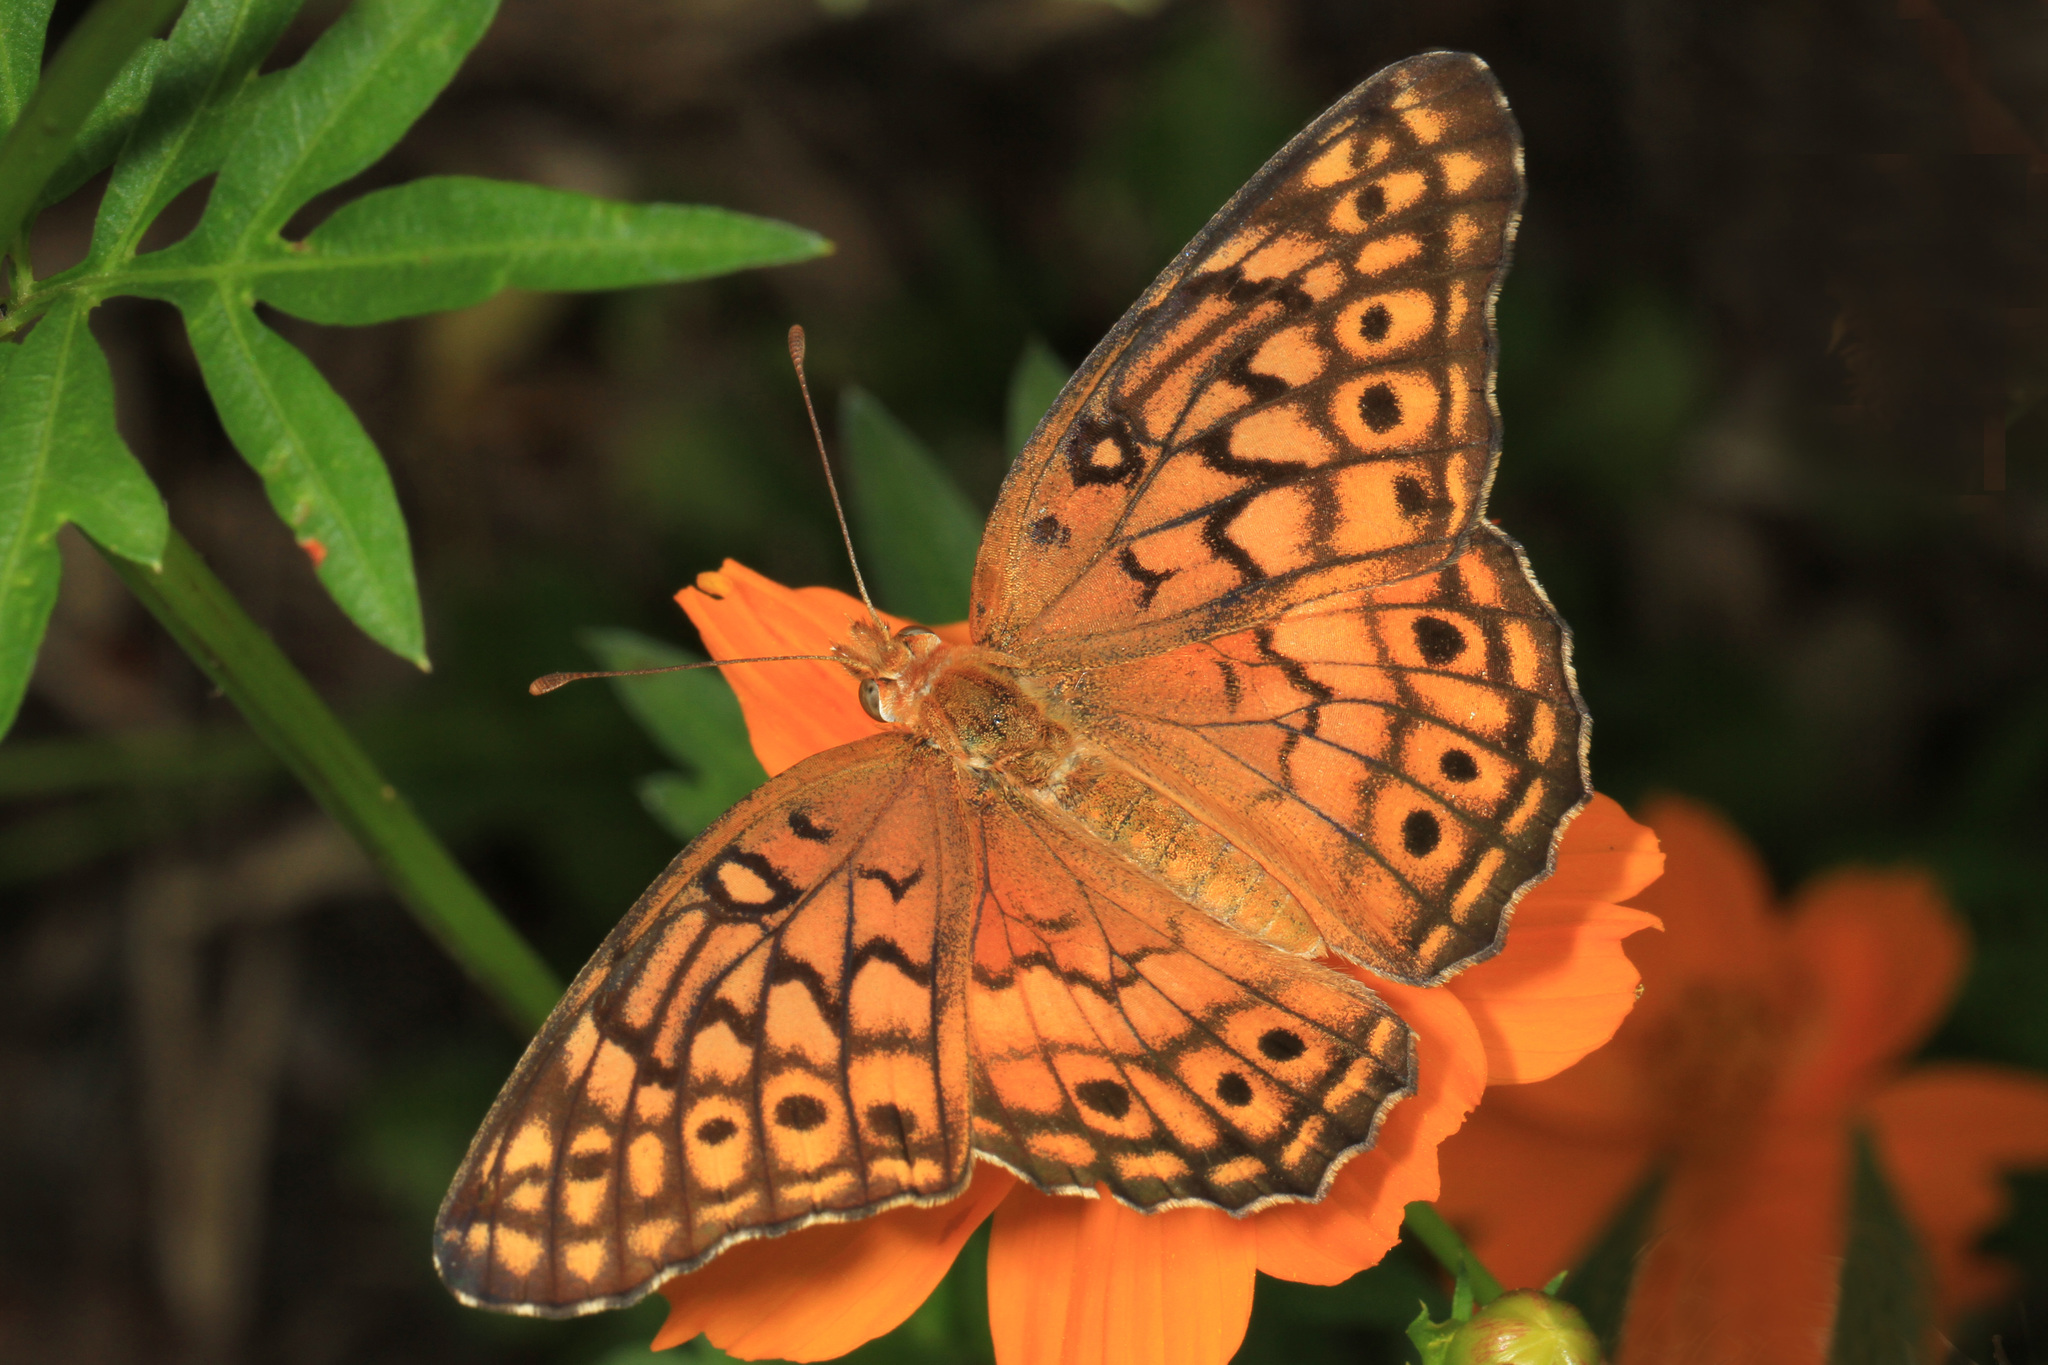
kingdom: Animalia
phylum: Arthropoda
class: Insecta
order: Lepidoptera
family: Nymphalidae
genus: Euptoieta
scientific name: Euptoieta claudia
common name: Variegated fritillary
